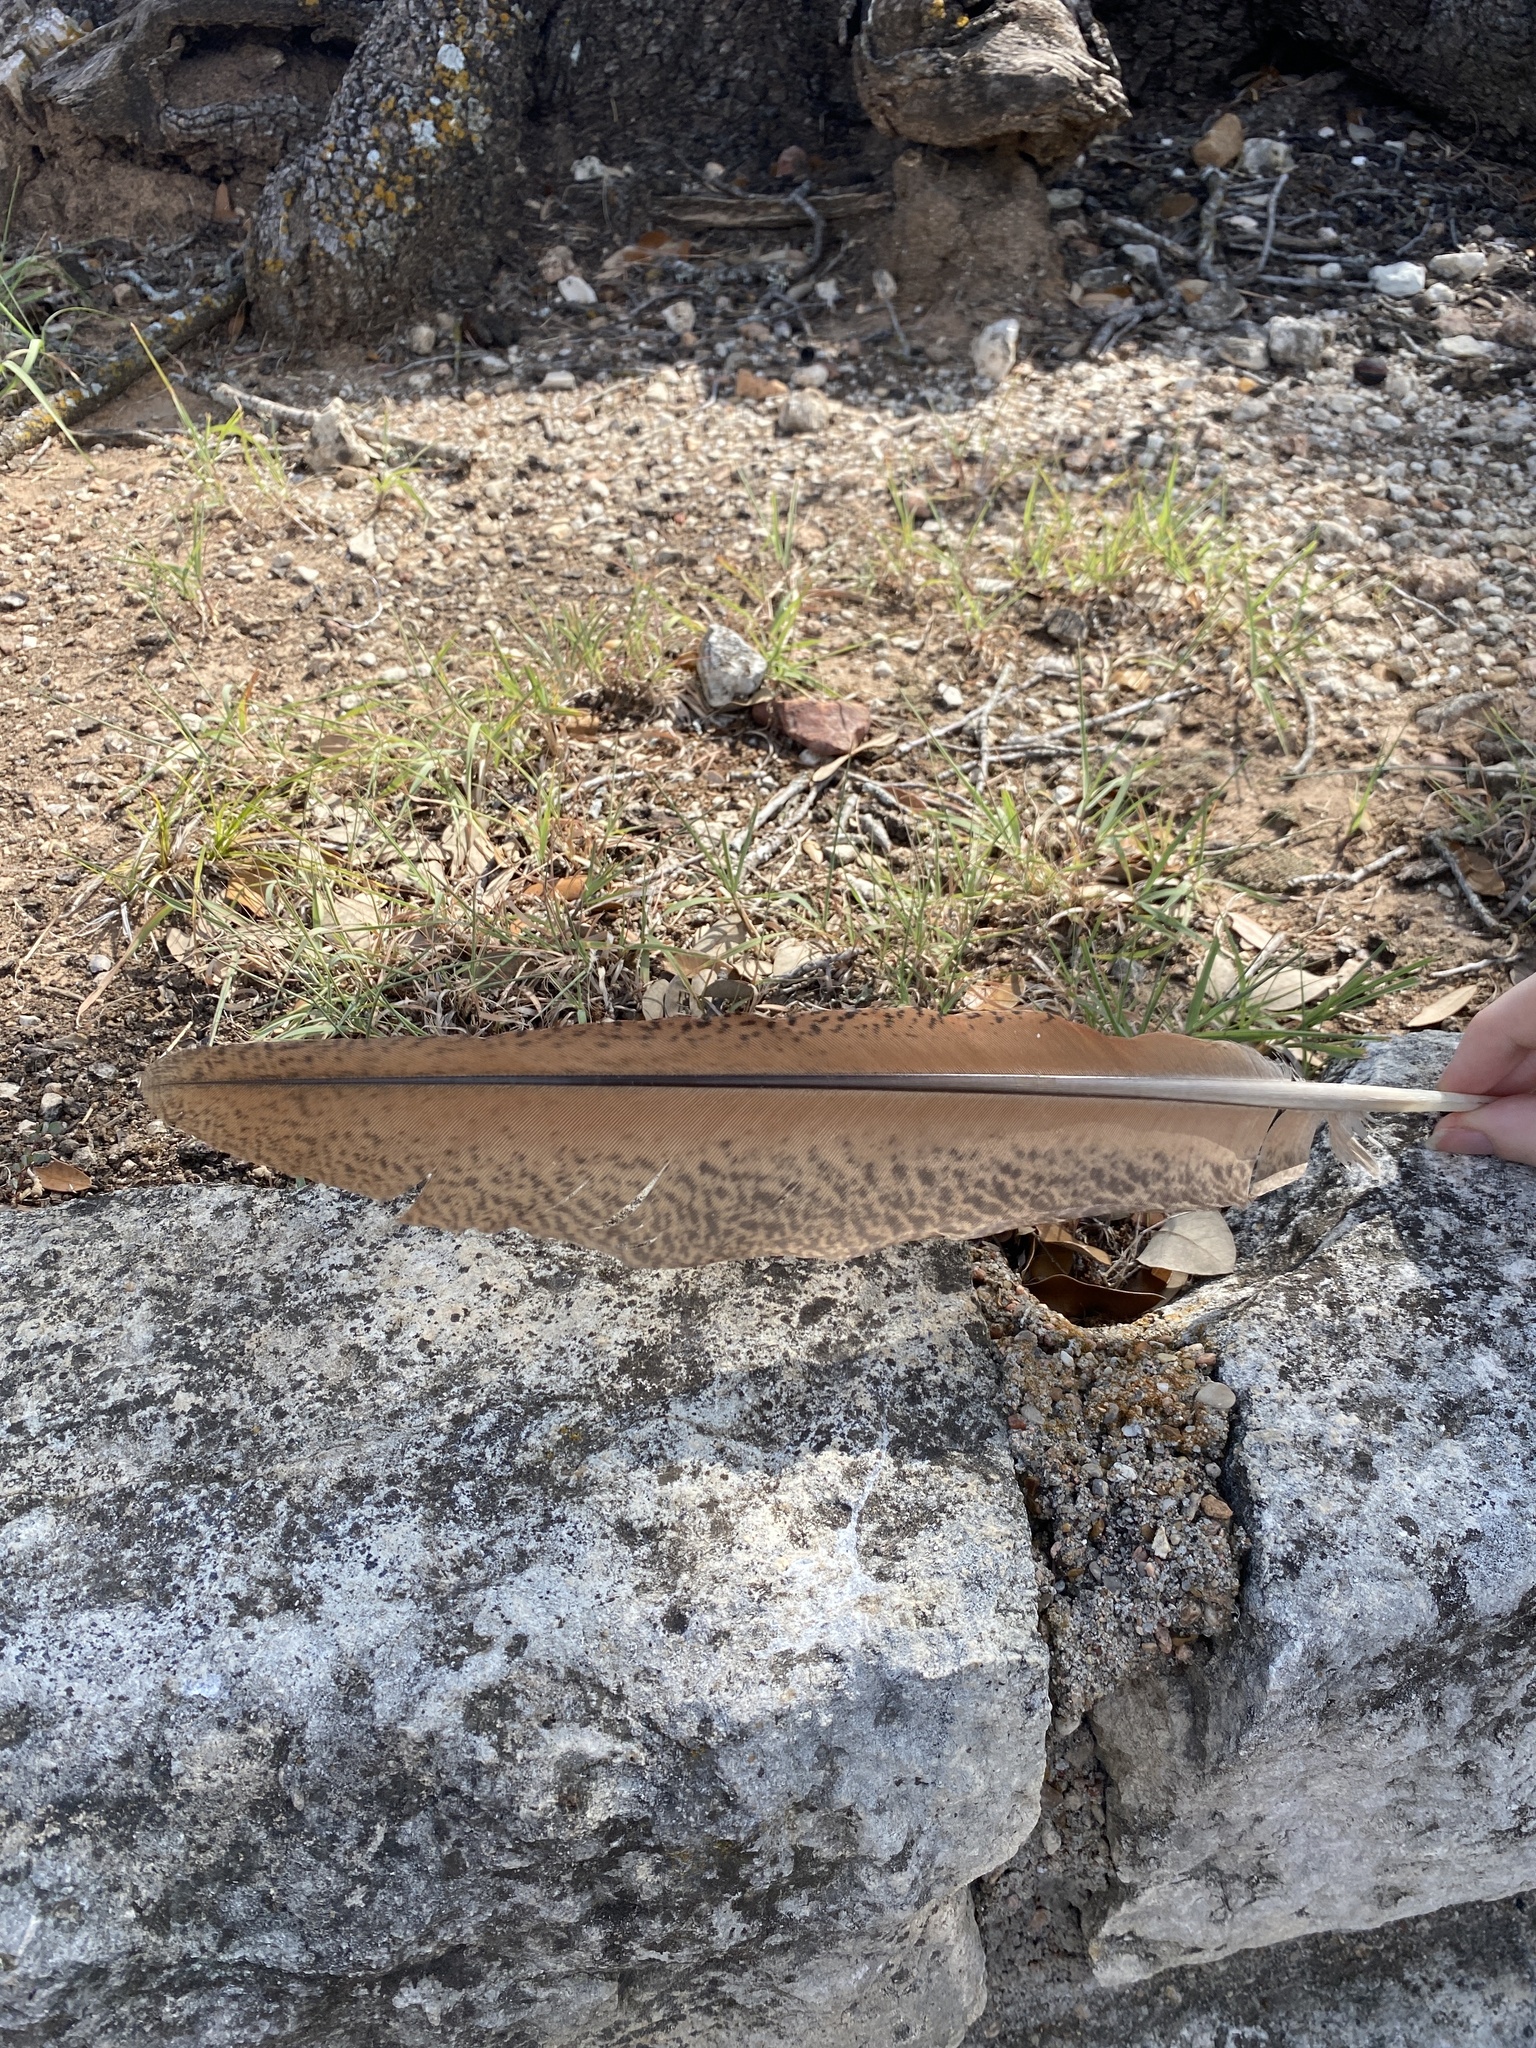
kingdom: Animalia
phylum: Chordata
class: Aves
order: Galliformes
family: Phasianidae
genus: Pavo
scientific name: Pavo cristatus
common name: Indian peafowl
